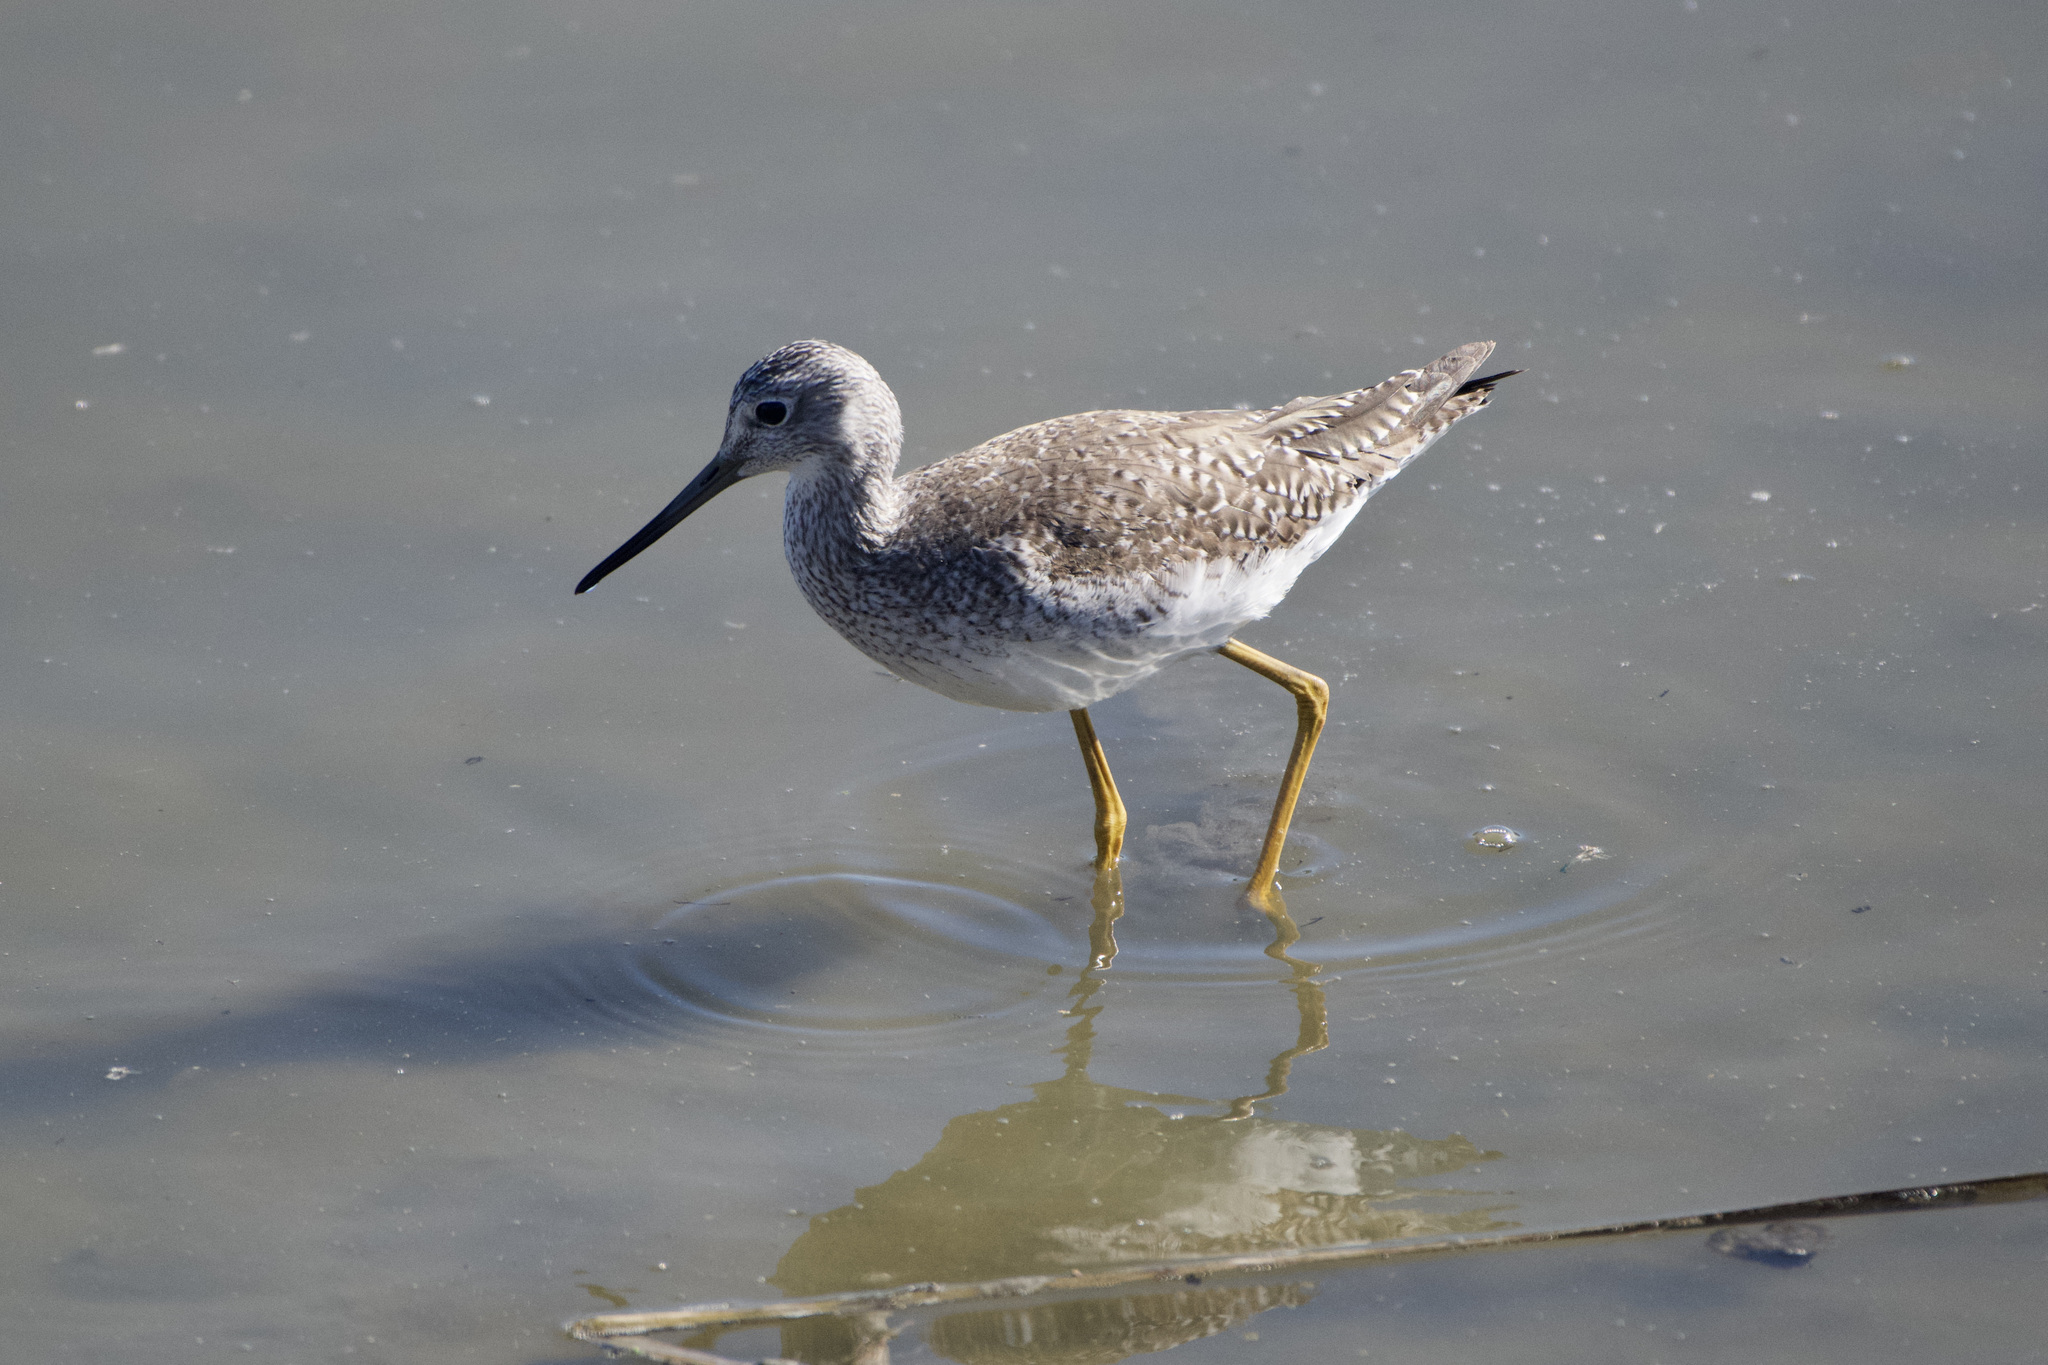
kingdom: Animalia
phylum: Chordata
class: Aves
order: Charadriiformes
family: Scolopacidae
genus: Tringa
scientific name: Tringa melanoleuca
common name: Greater yellowlegs
